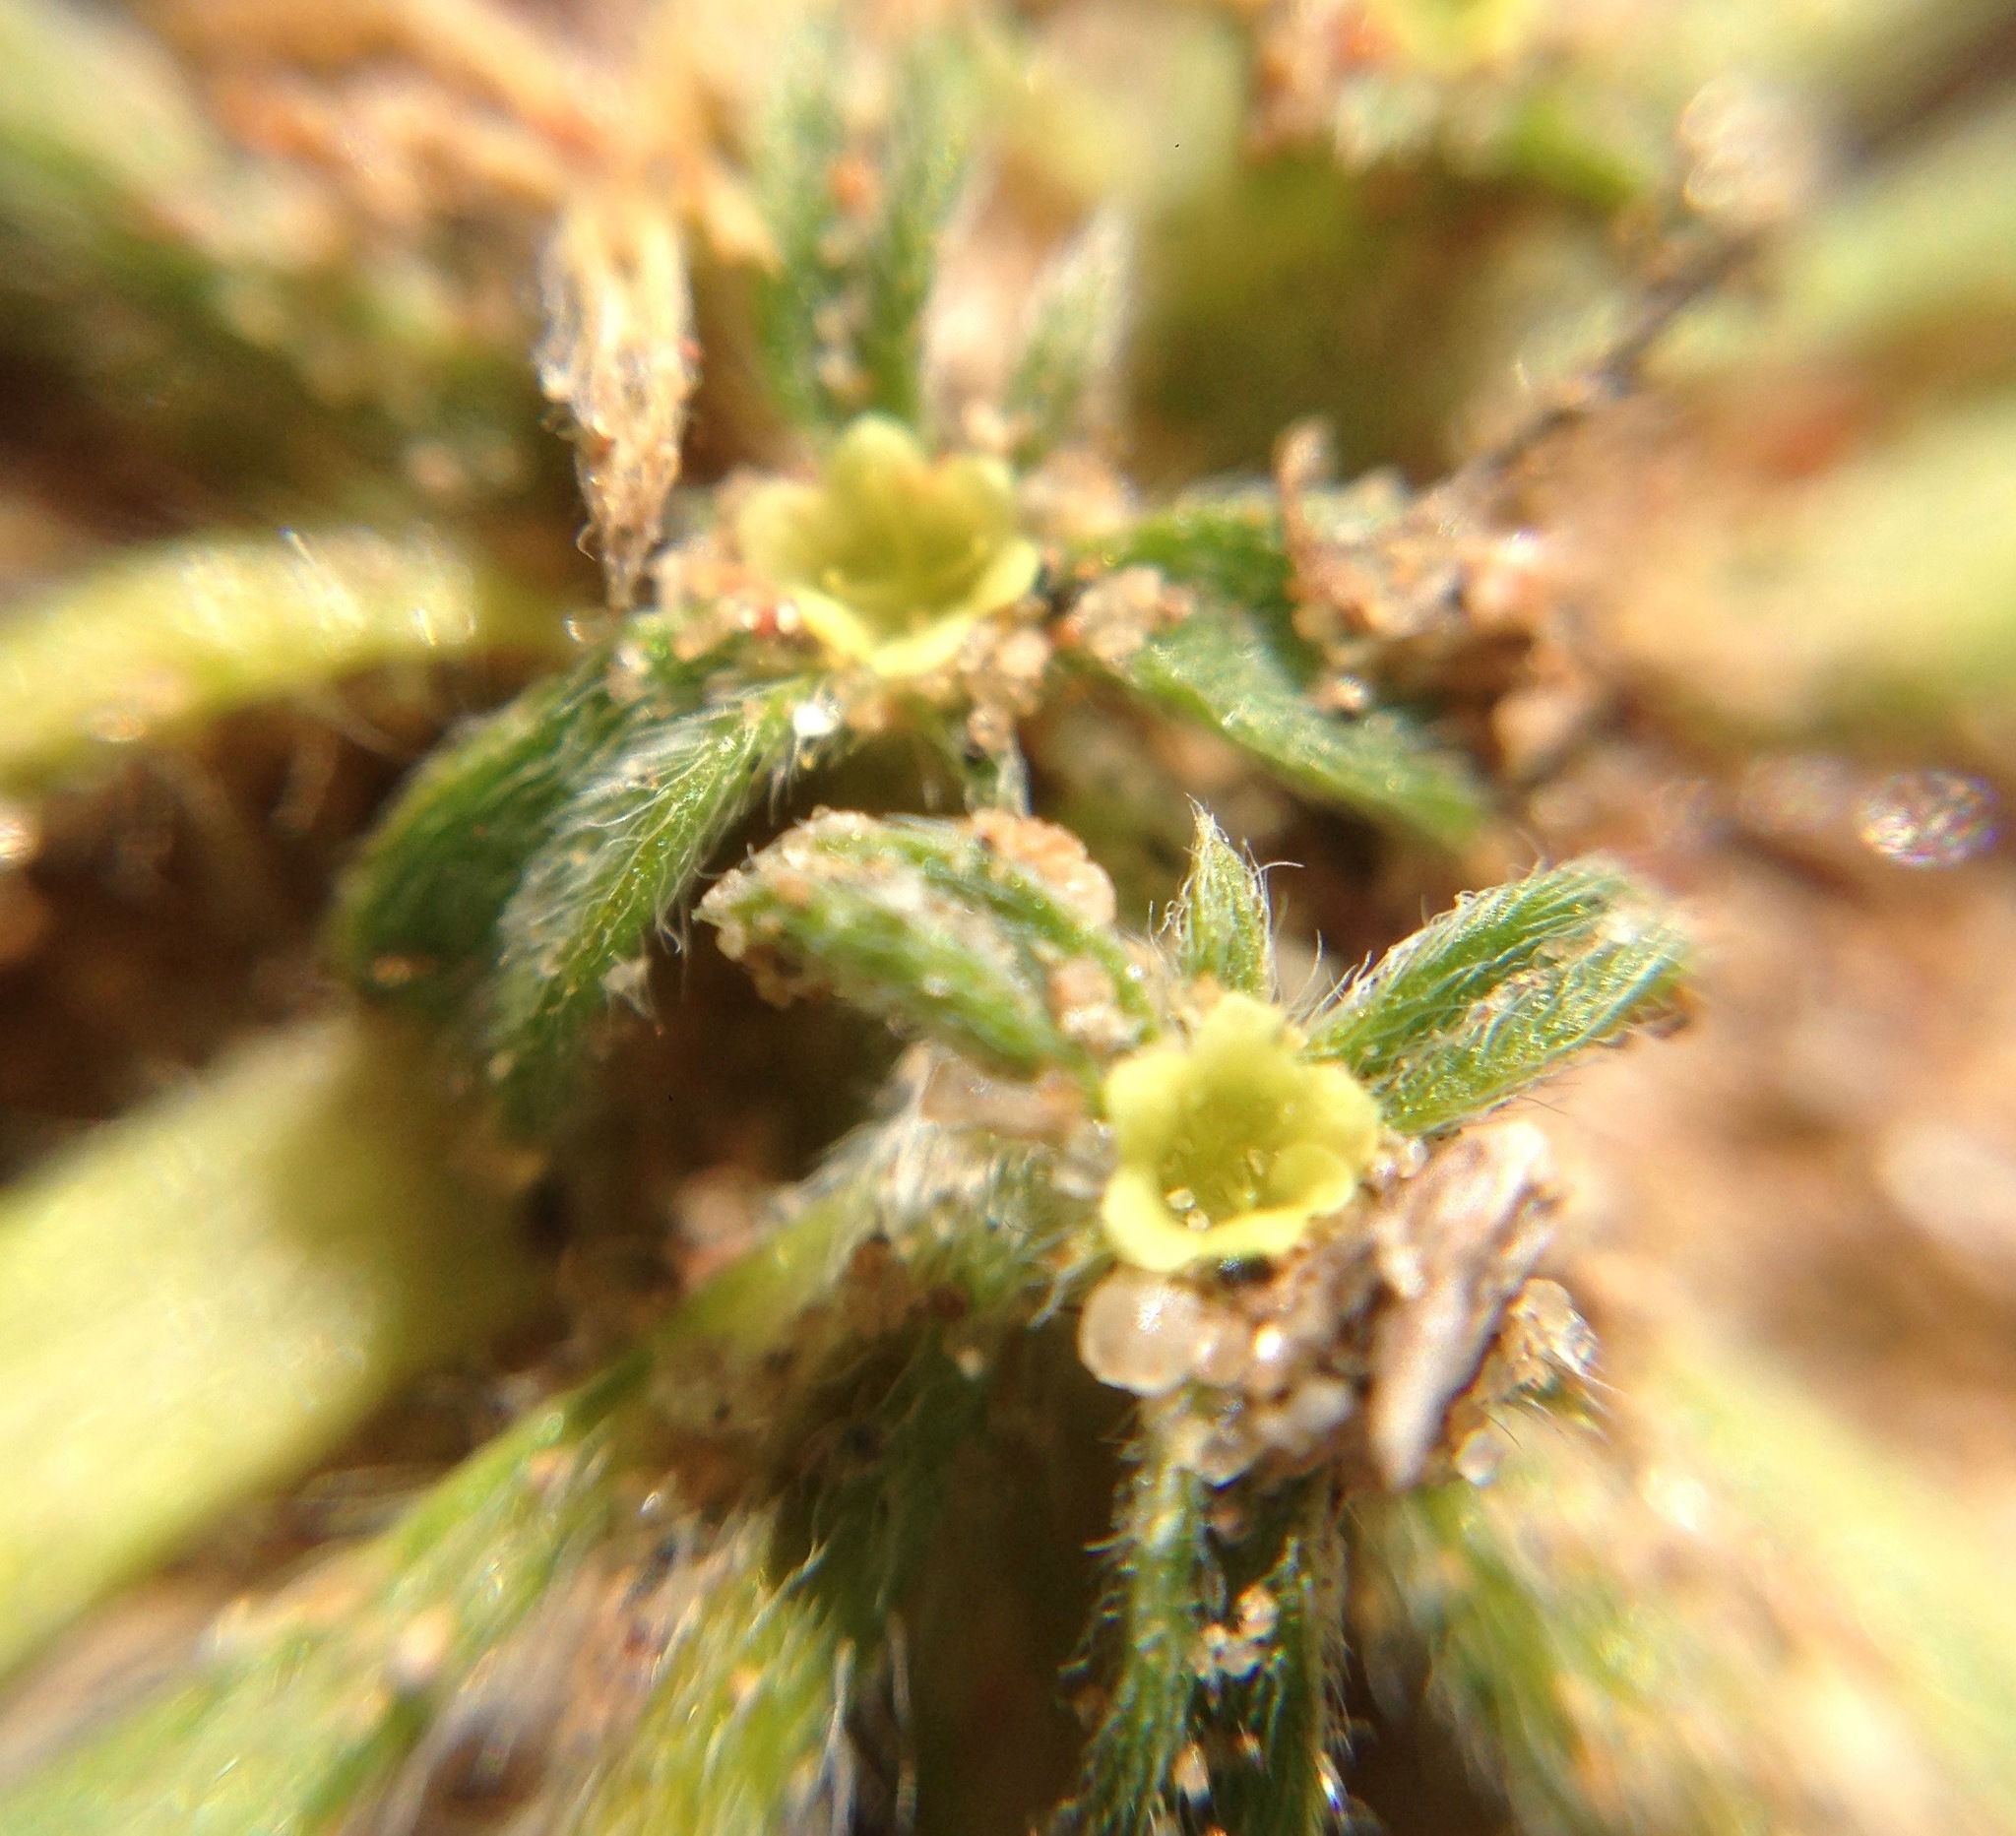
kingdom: Plantae
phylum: Tracheophyta
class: Magnoliopsida
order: Caryophyllales
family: Polygonaceae
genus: Chorizanthe
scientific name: Chorizanthe procumbens
